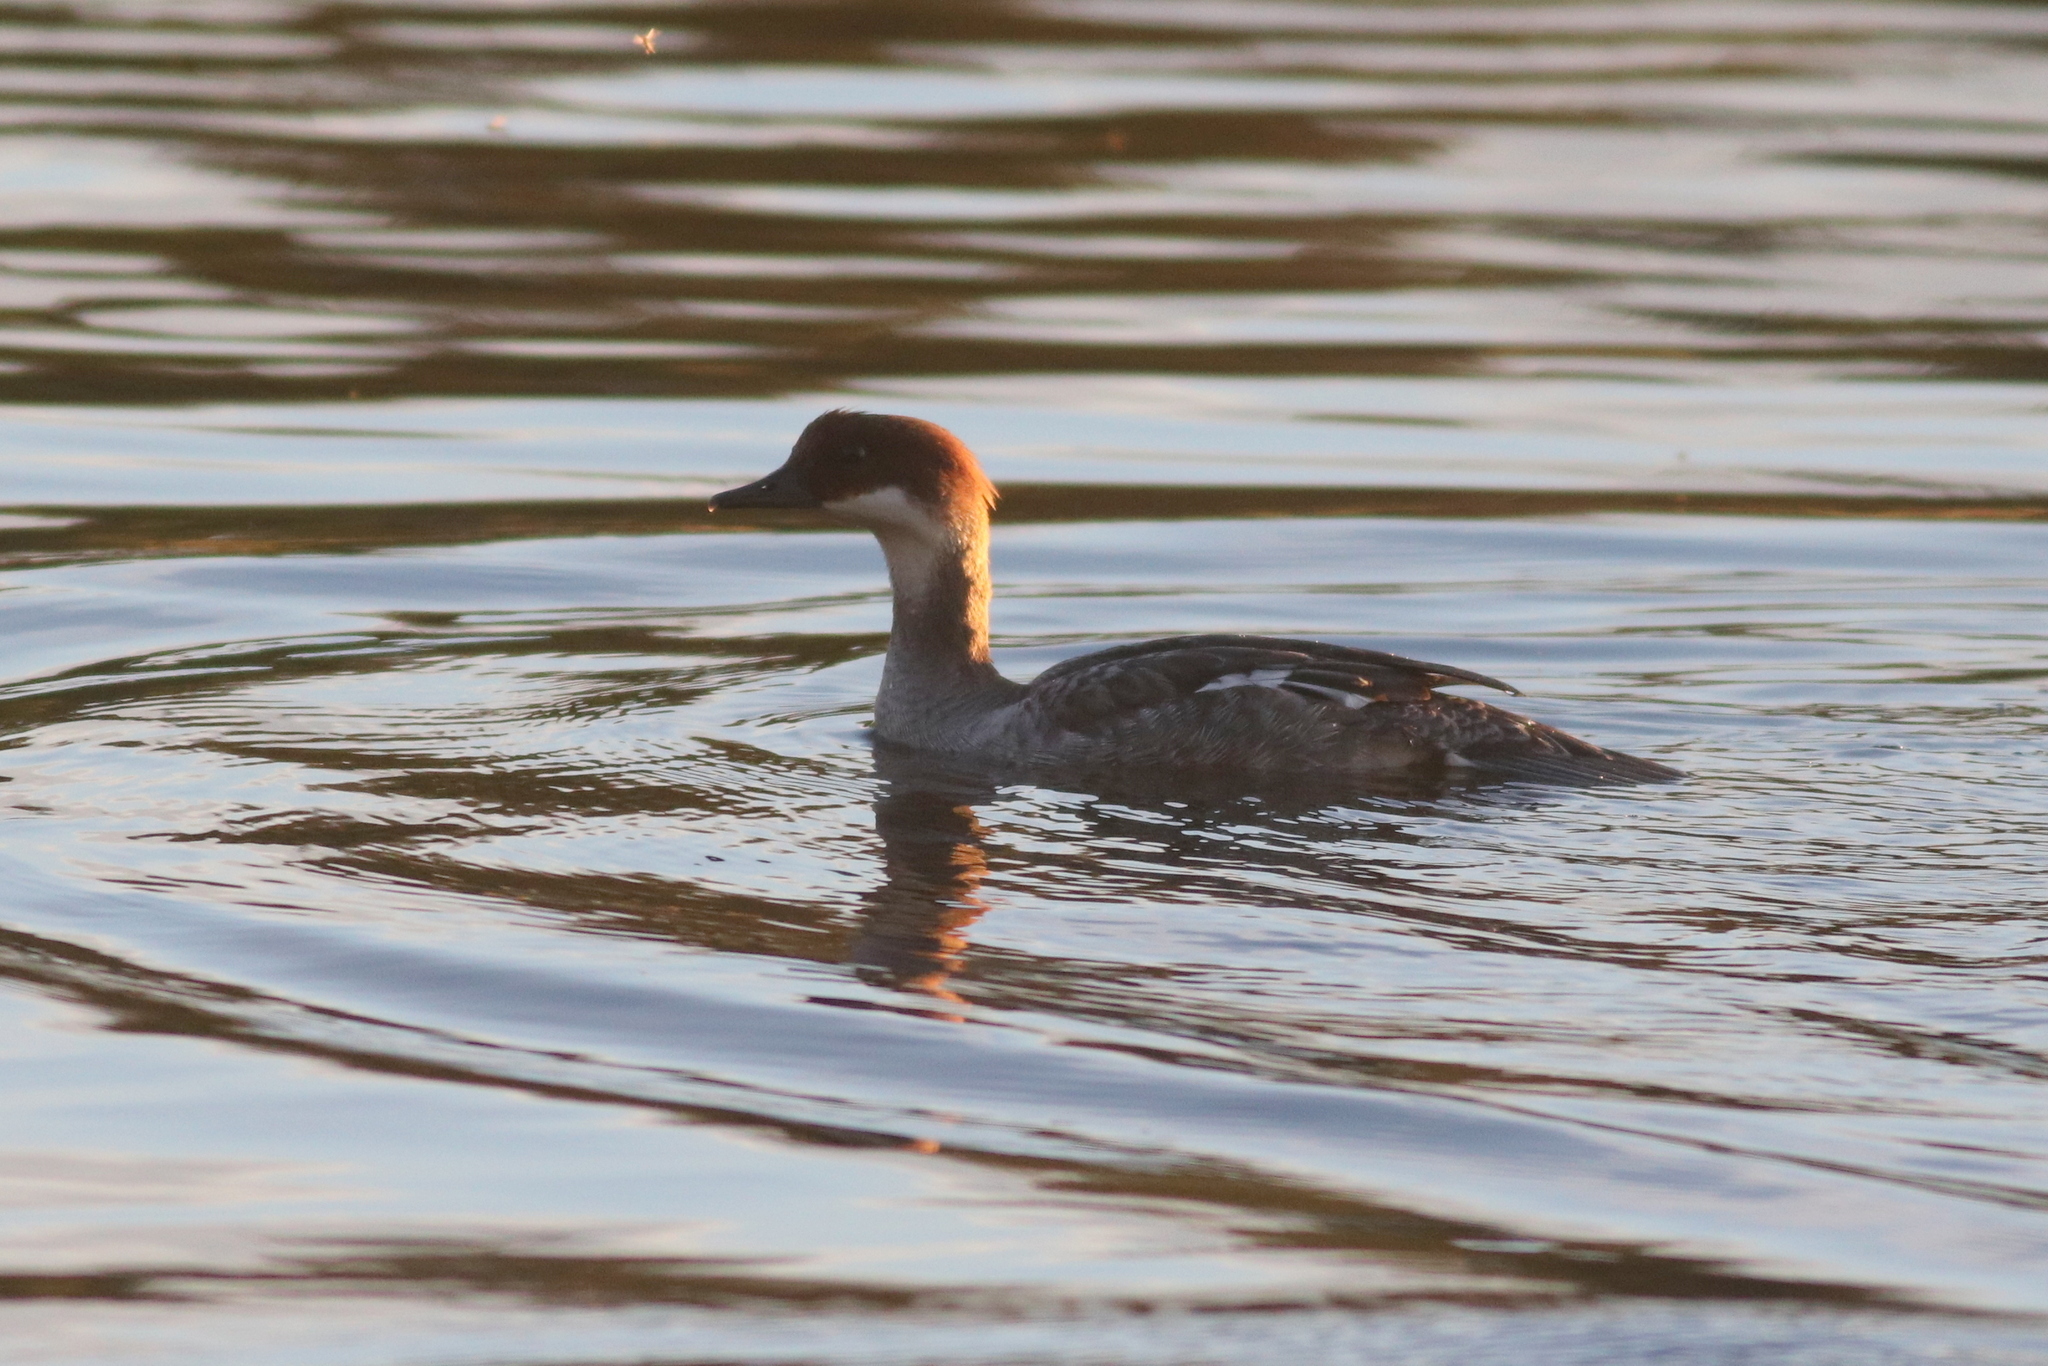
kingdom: Animalia
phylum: Chordata
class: Aves
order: Anseriformes
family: Anatidae
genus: Mergellus
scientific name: Mergellus albellus
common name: Smew
